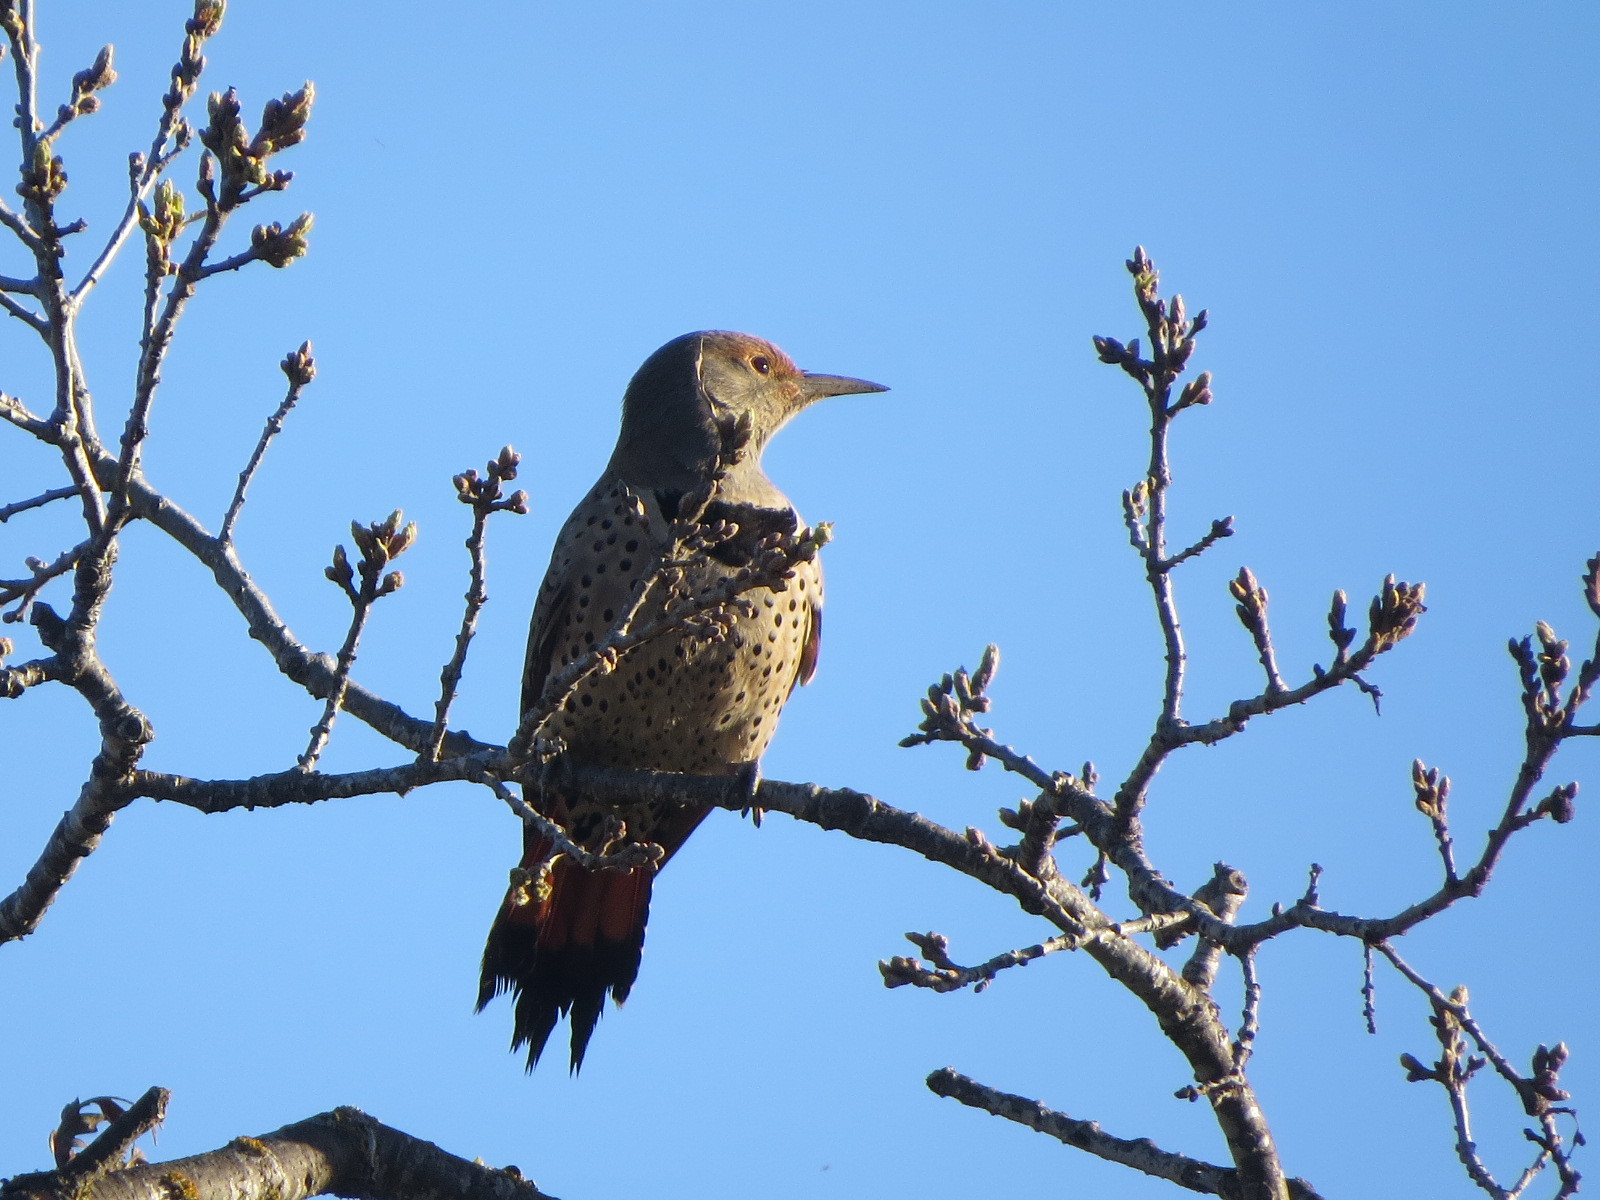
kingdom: Animalia
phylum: Chordata
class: Aves
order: Piciformes
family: Picidae
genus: Colaptes
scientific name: Colaptes auratus
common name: Northern flicker
